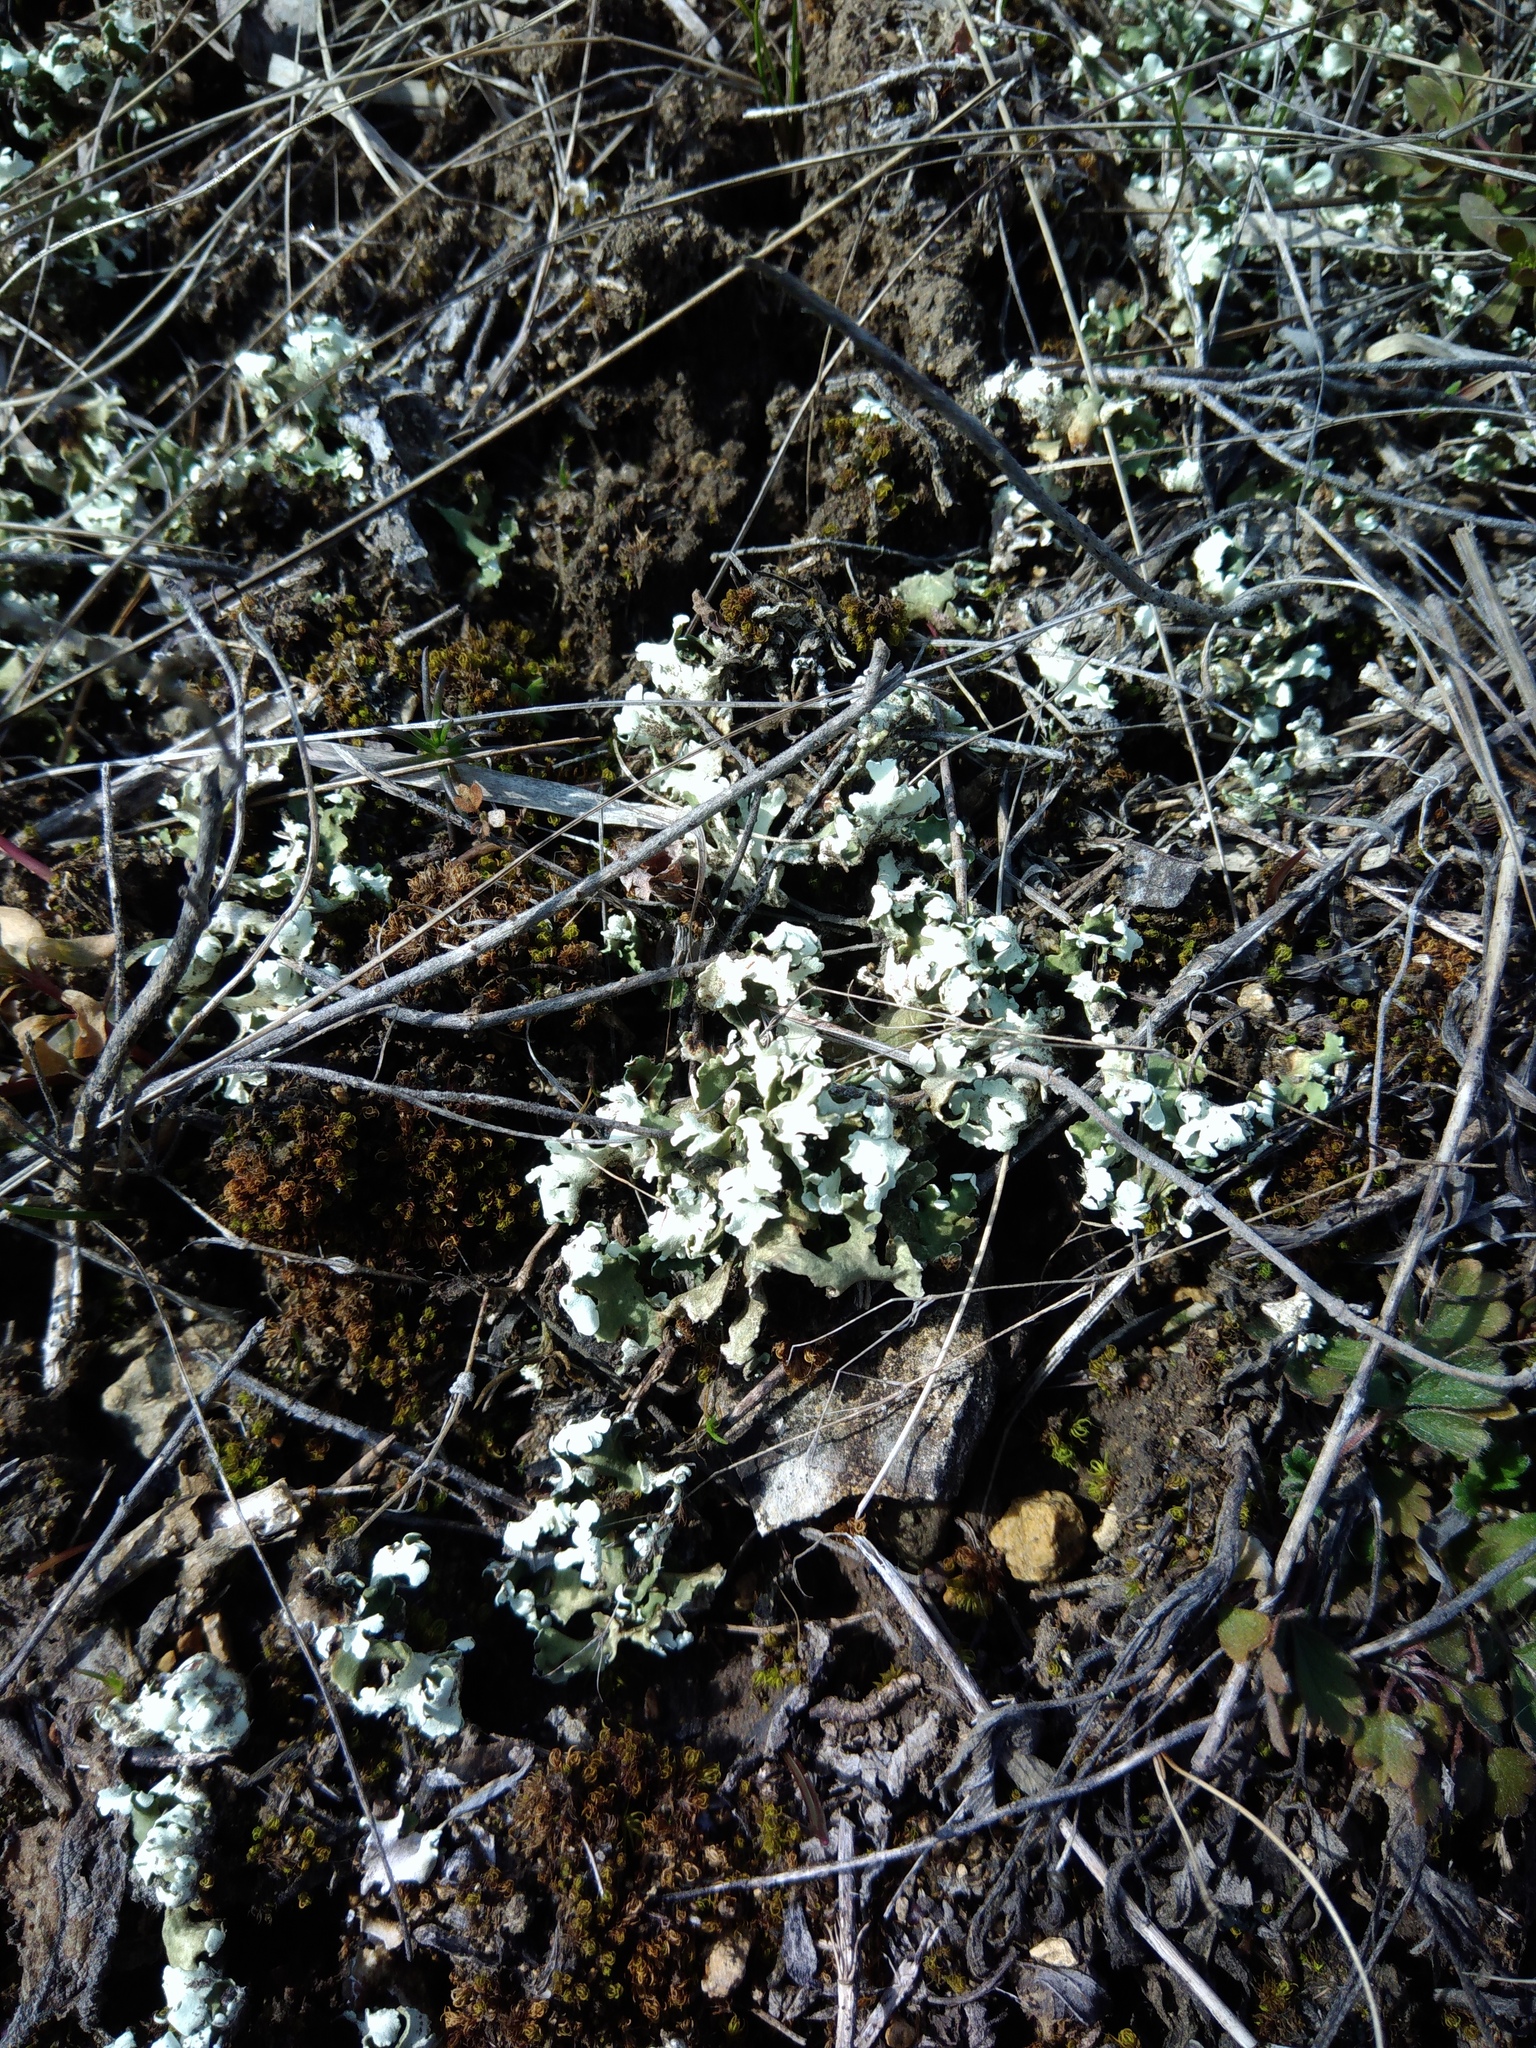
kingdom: Fungi
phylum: Ascomycota
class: Lecanoromycetes
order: Lecanorales
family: Cladoniaceae
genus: Cladonia
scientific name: Cladonia foliacea
